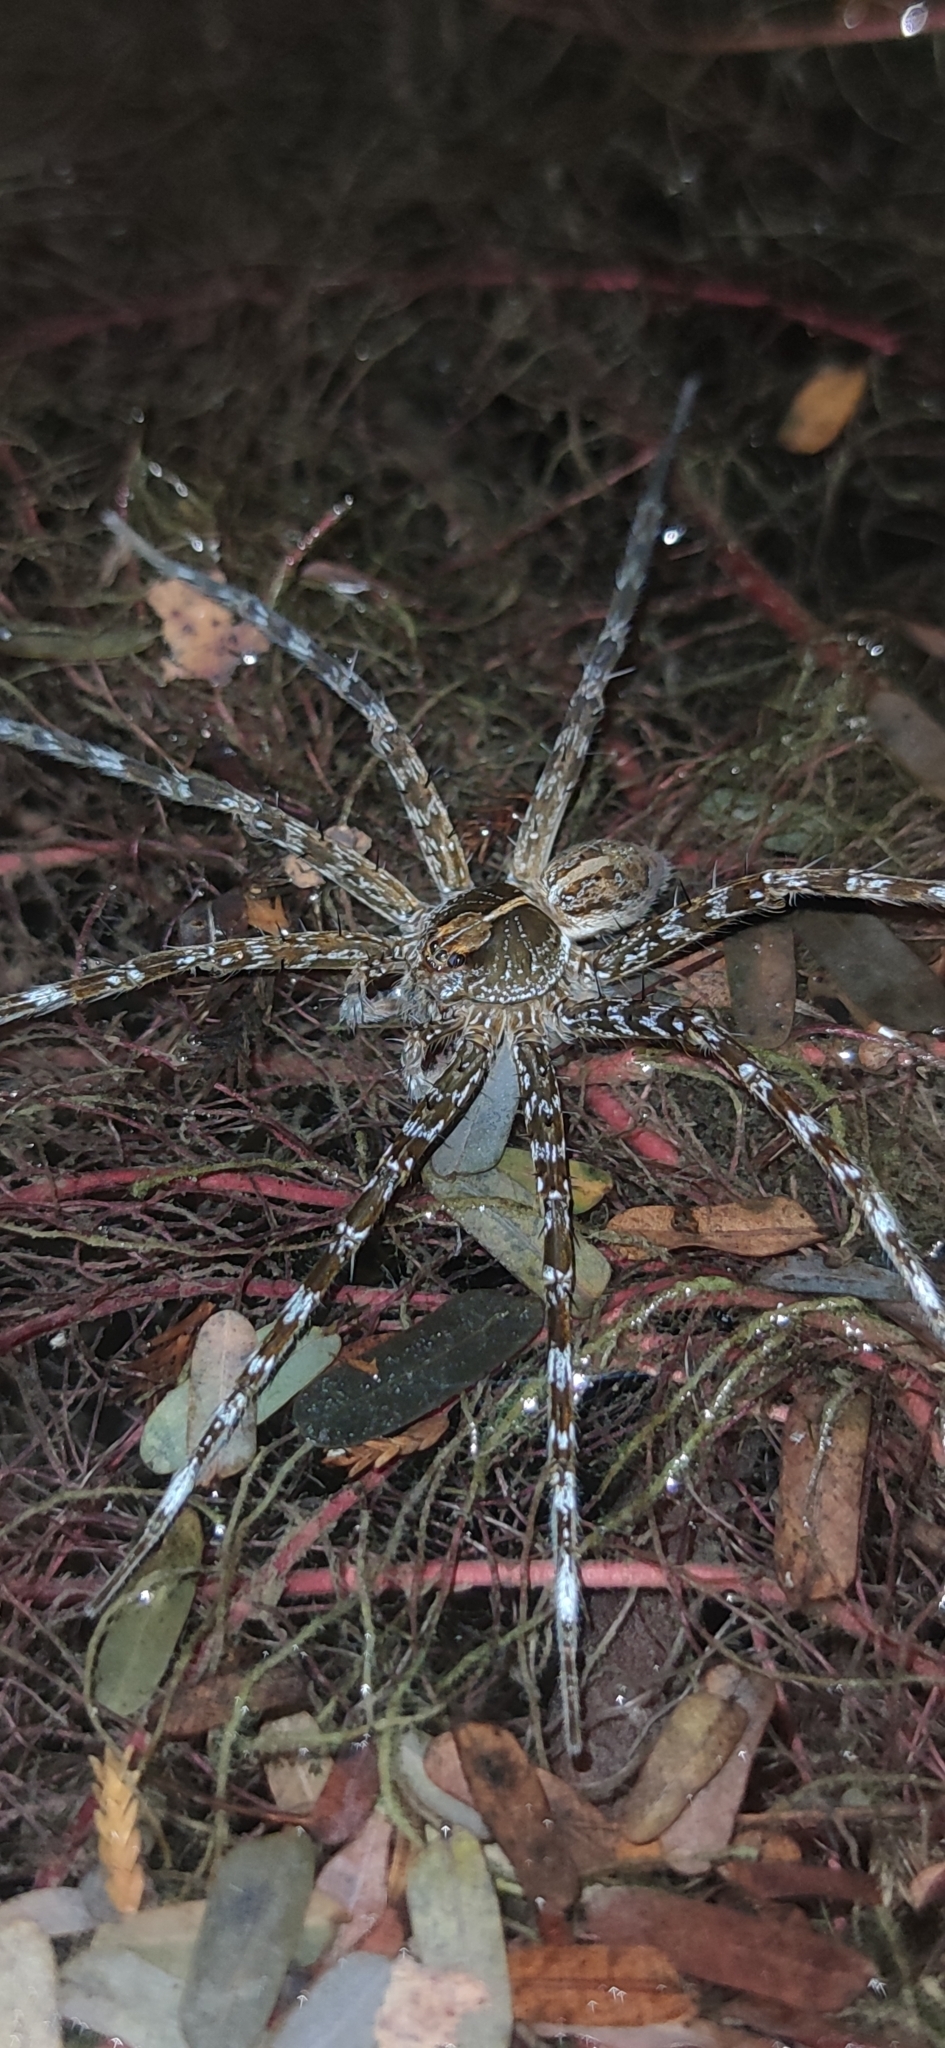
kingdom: Animalia
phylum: Arthropoda
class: Arachnida
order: Araneae
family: Pisauridae
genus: Dolomedes
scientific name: Dolomedes mizhoanus
